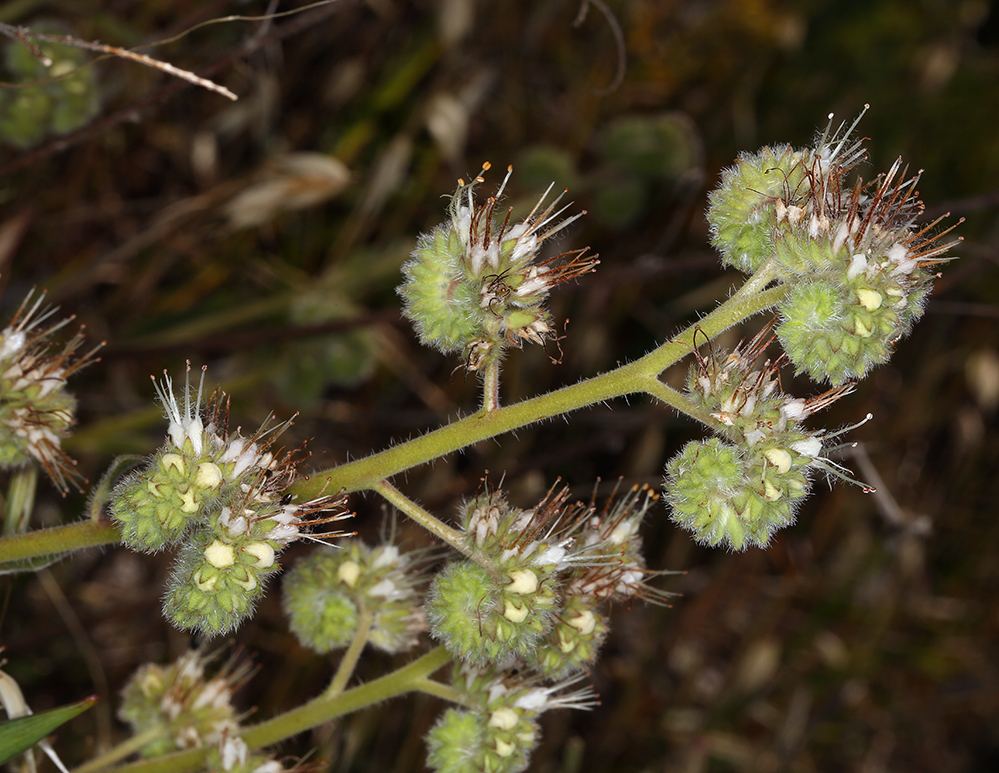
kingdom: Plantae
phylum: Tracheophyta
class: Magnoliopsida
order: Boraginales
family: Hydrophyllaceae
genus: Phacelia
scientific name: Phacelia imbricata
